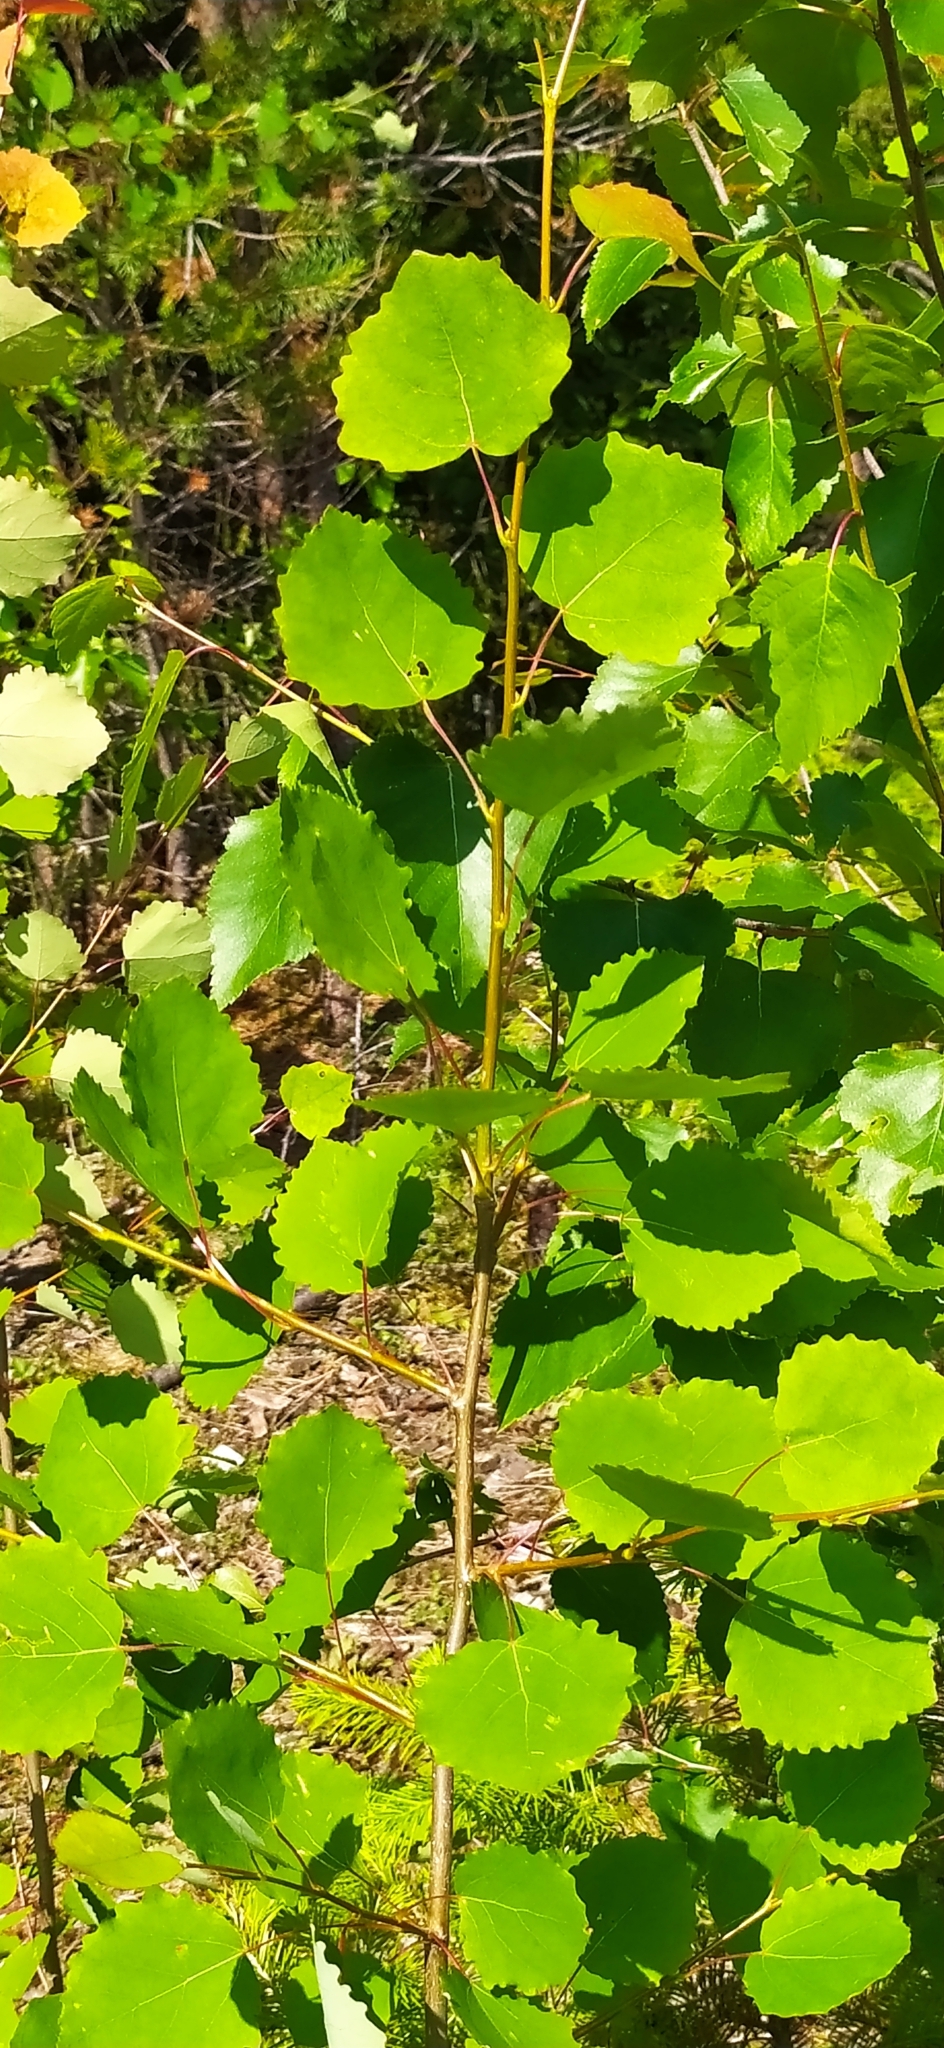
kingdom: Plantae
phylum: Tracheophyta
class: Magnoliopsida
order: Malpighiales
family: Salicaceae
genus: Populus
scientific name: Populus tremula
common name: European aspen
